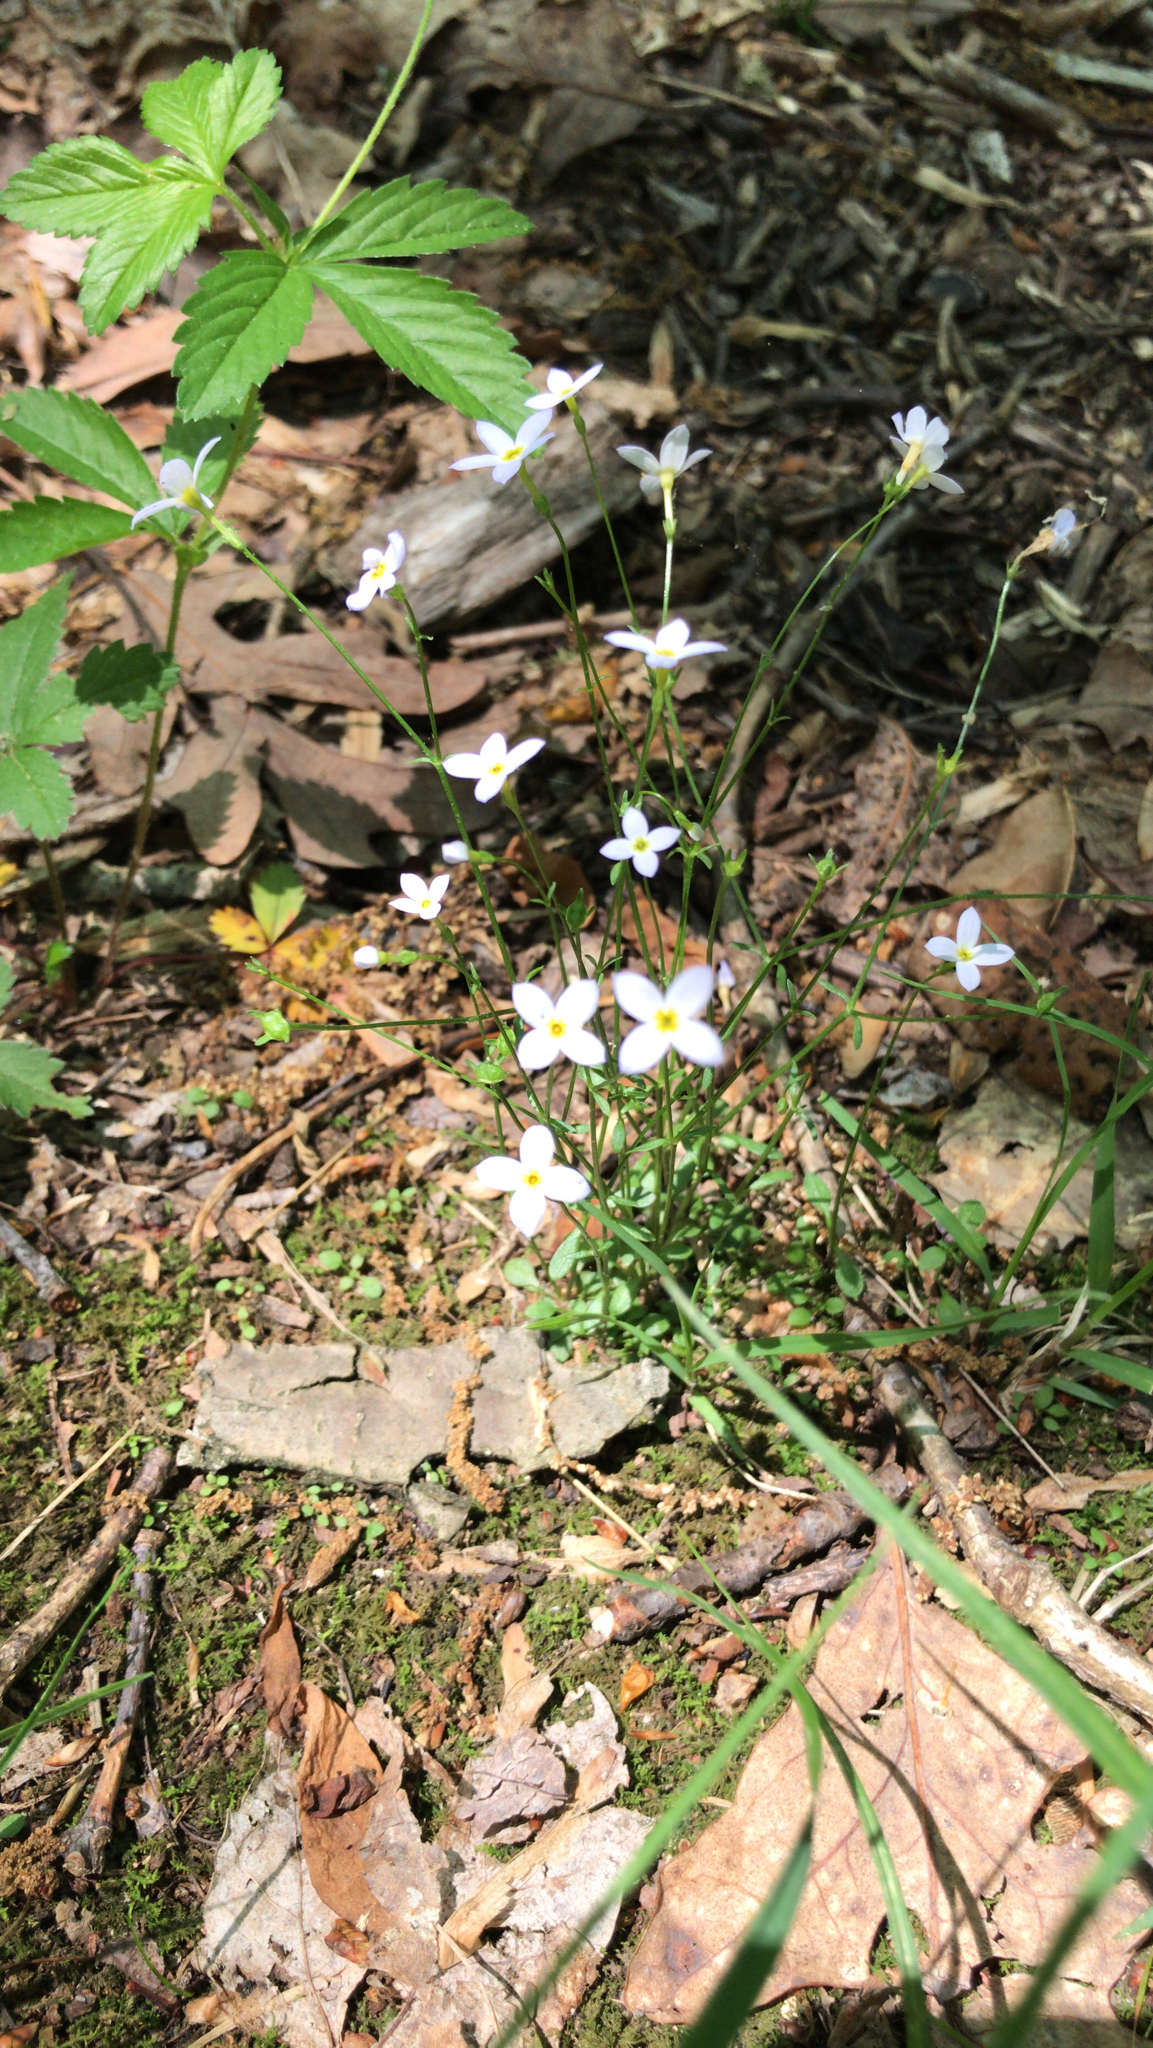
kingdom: Plantae
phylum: Tracheophyta
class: Magnoliopsida
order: Gentianales
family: Rubiaceae
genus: Houstonia
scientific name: Houstonia caerulea
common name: Bluets
